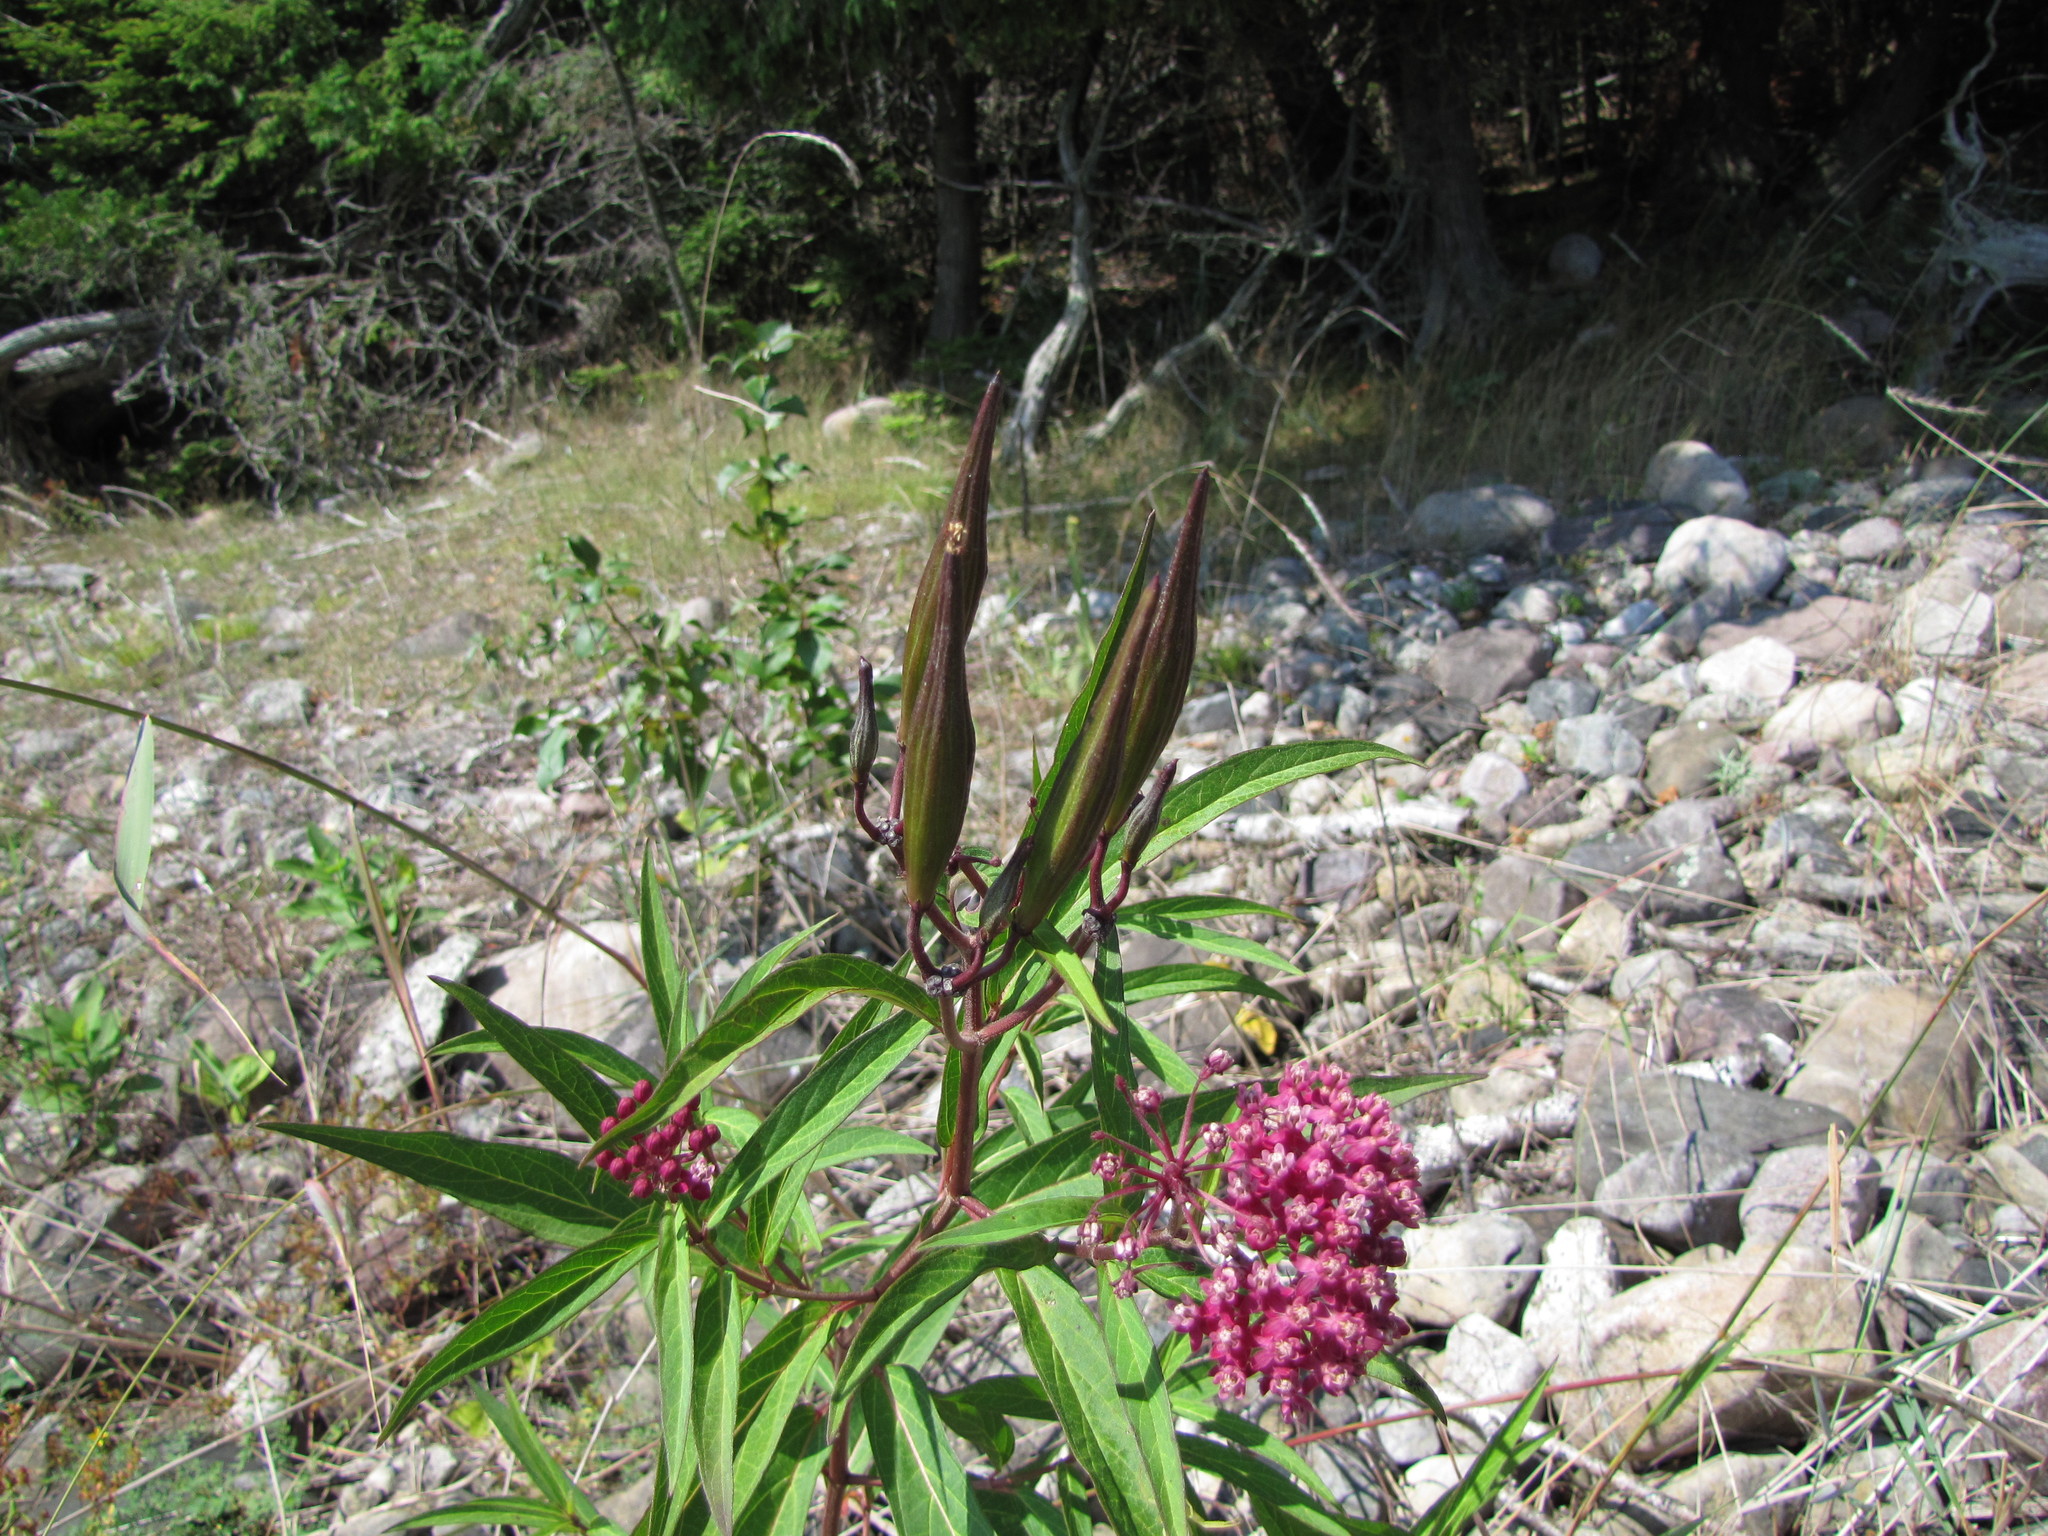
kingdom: Plantae
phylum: Tracheophyta
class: Magnoliopsida
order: Gentianales
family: Apocynaceae
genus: Asclepias
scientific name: Asclepias incarnata
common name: Swamp milkweed
